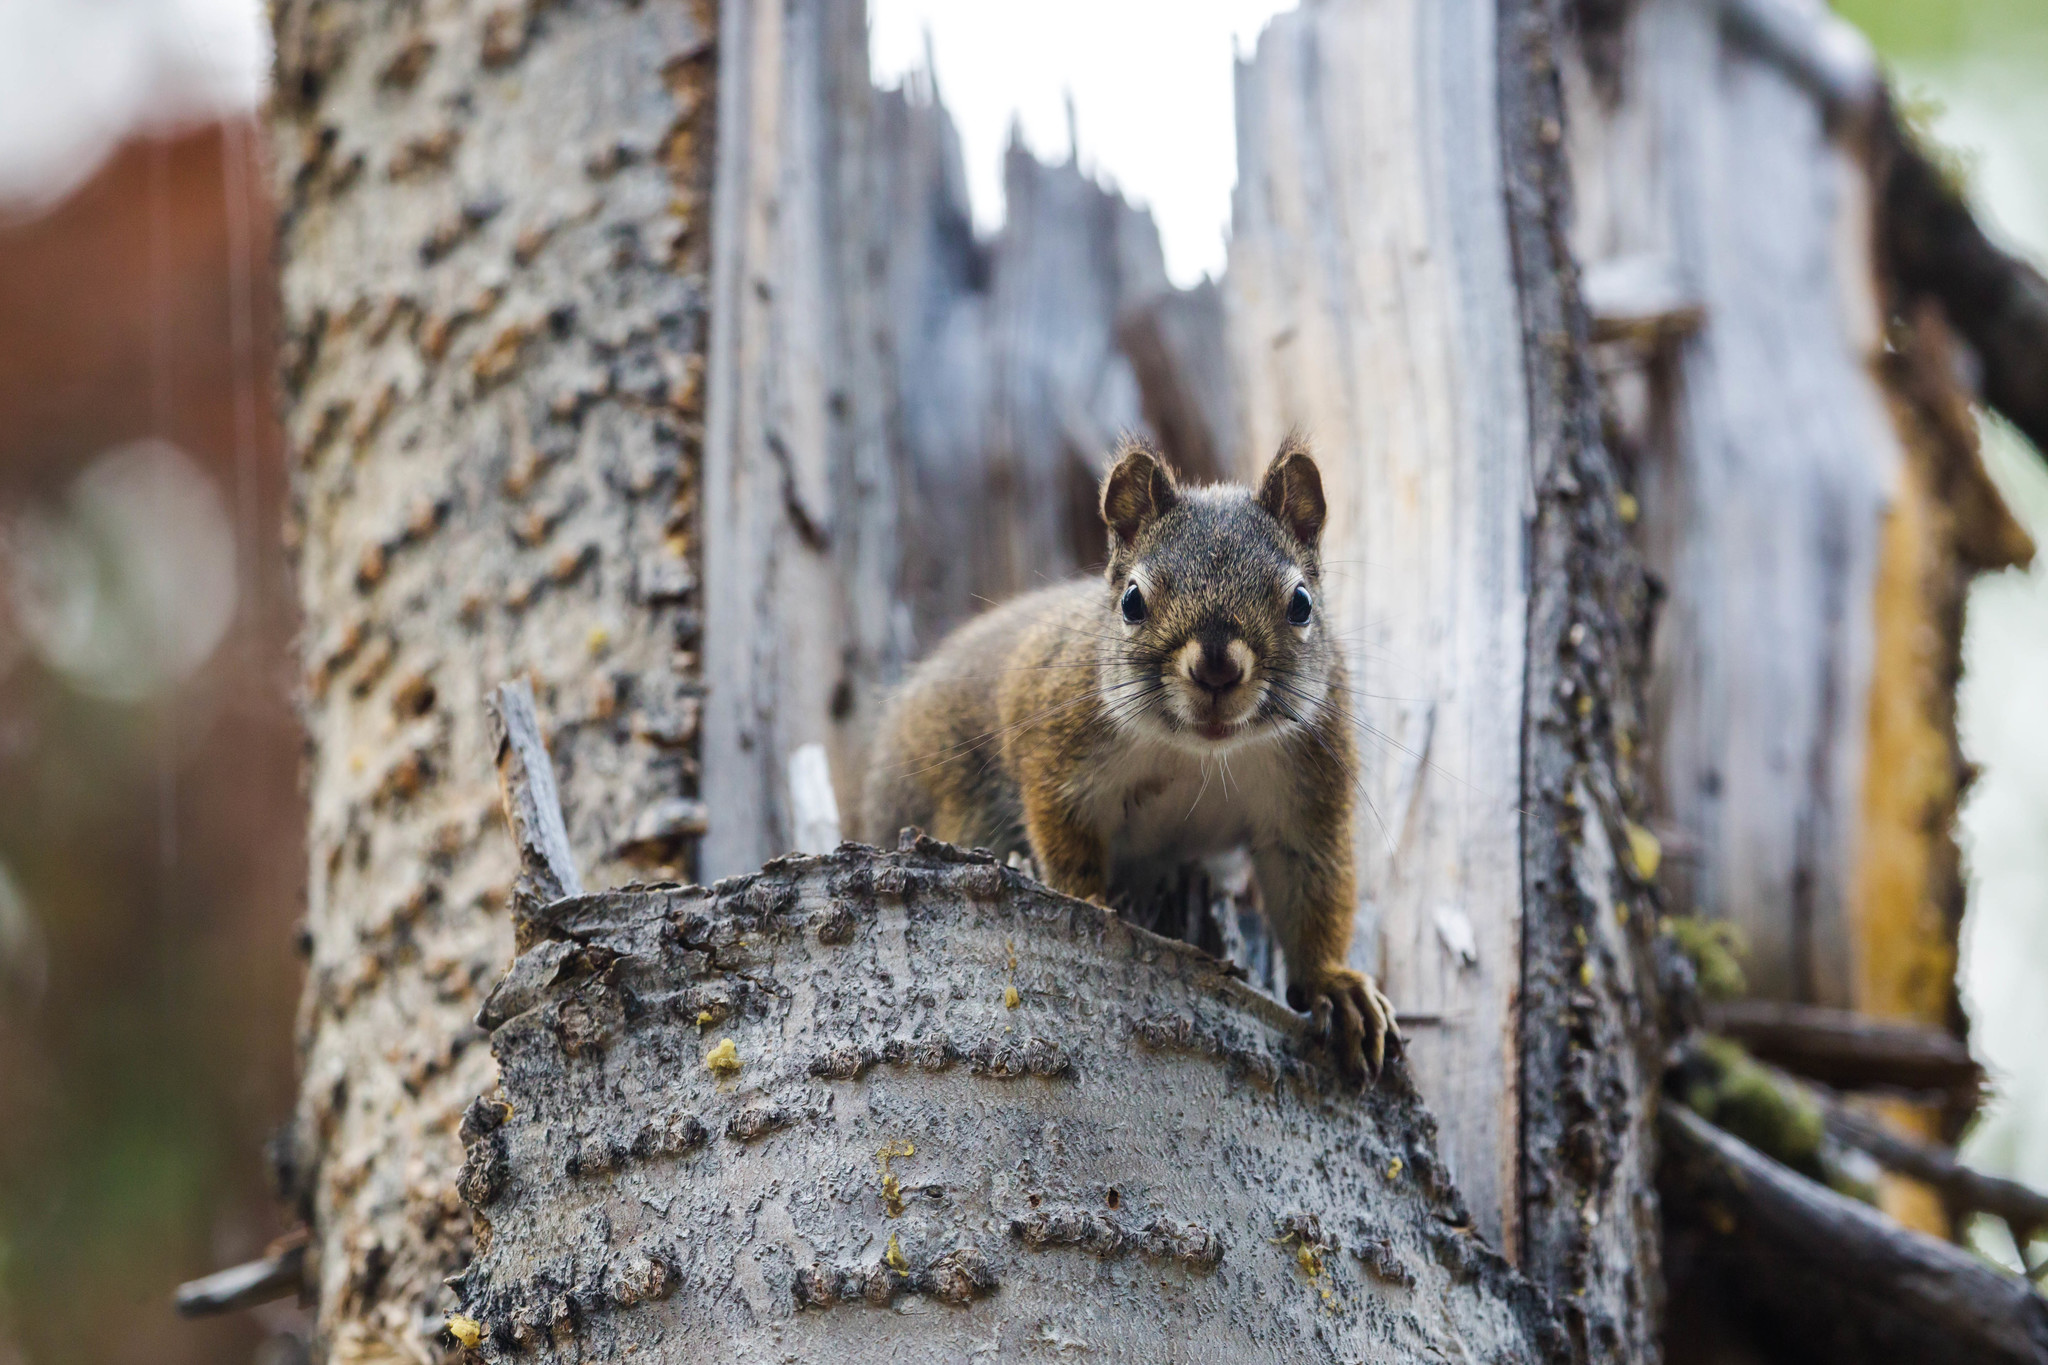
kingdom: Animalia
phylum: Chordata
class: Mammalia
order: Rodentia
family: Sciuridae
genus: Tamiasciurus
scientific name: Tamiasciurus hudsonicus
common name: Red squirrel
